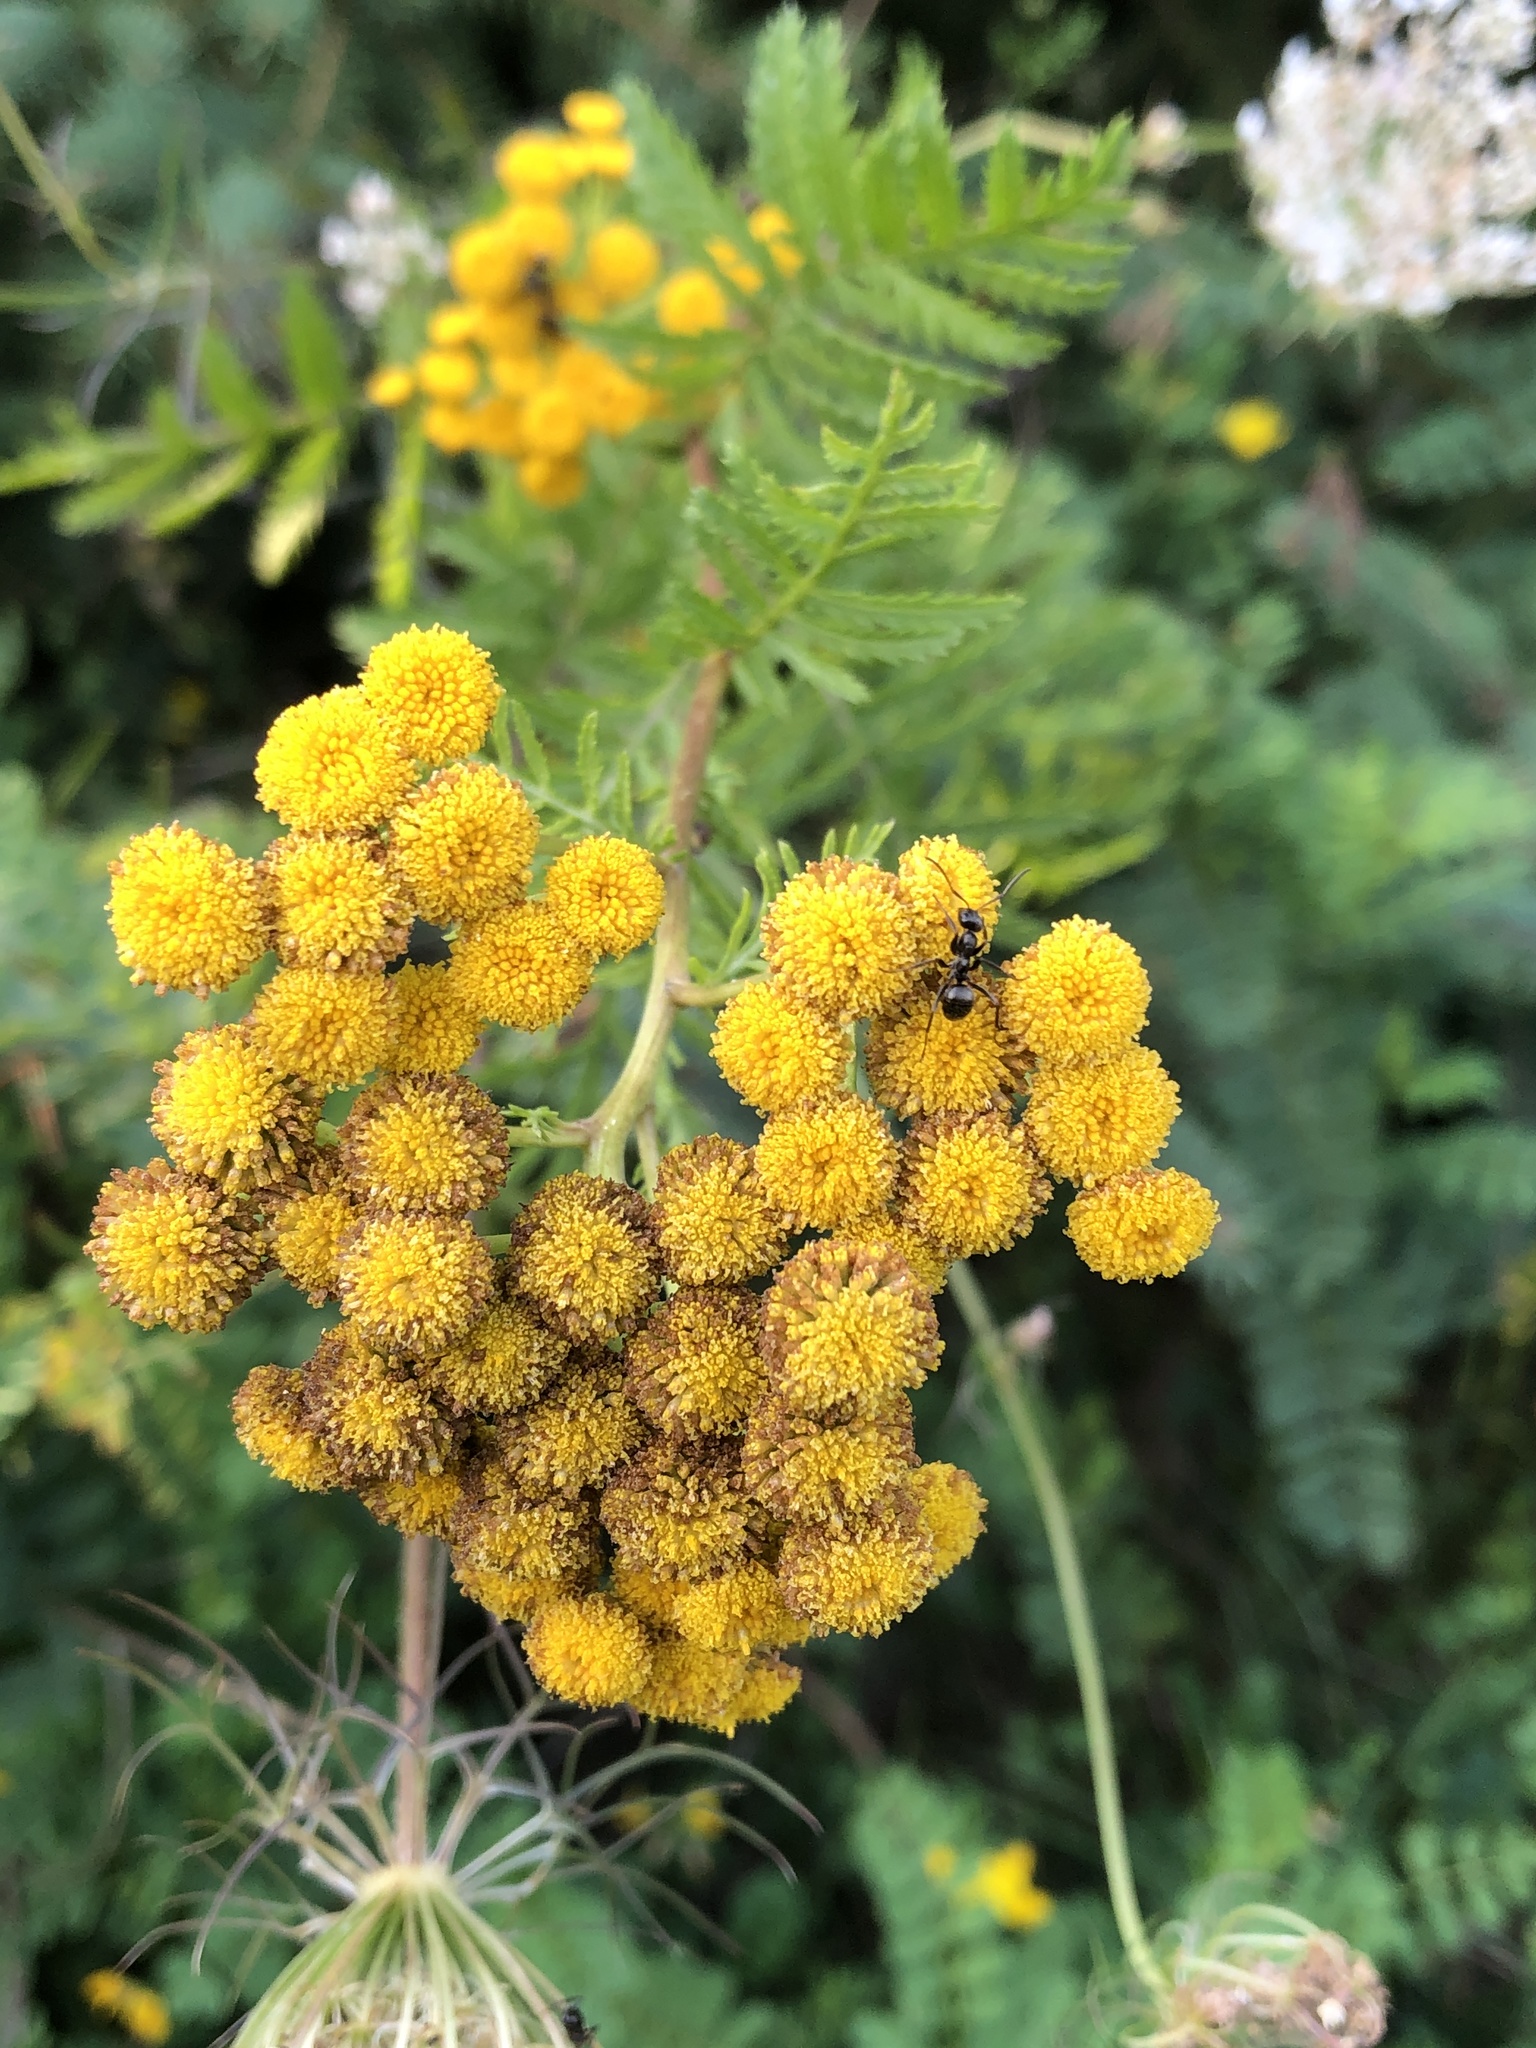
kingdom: Plantae
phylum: Tracheophyta
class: Magnoliopsida
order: Asterales
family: Asteraceae
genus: Tanacetum
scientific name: Tanacetum vulgare
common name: Common tansy
